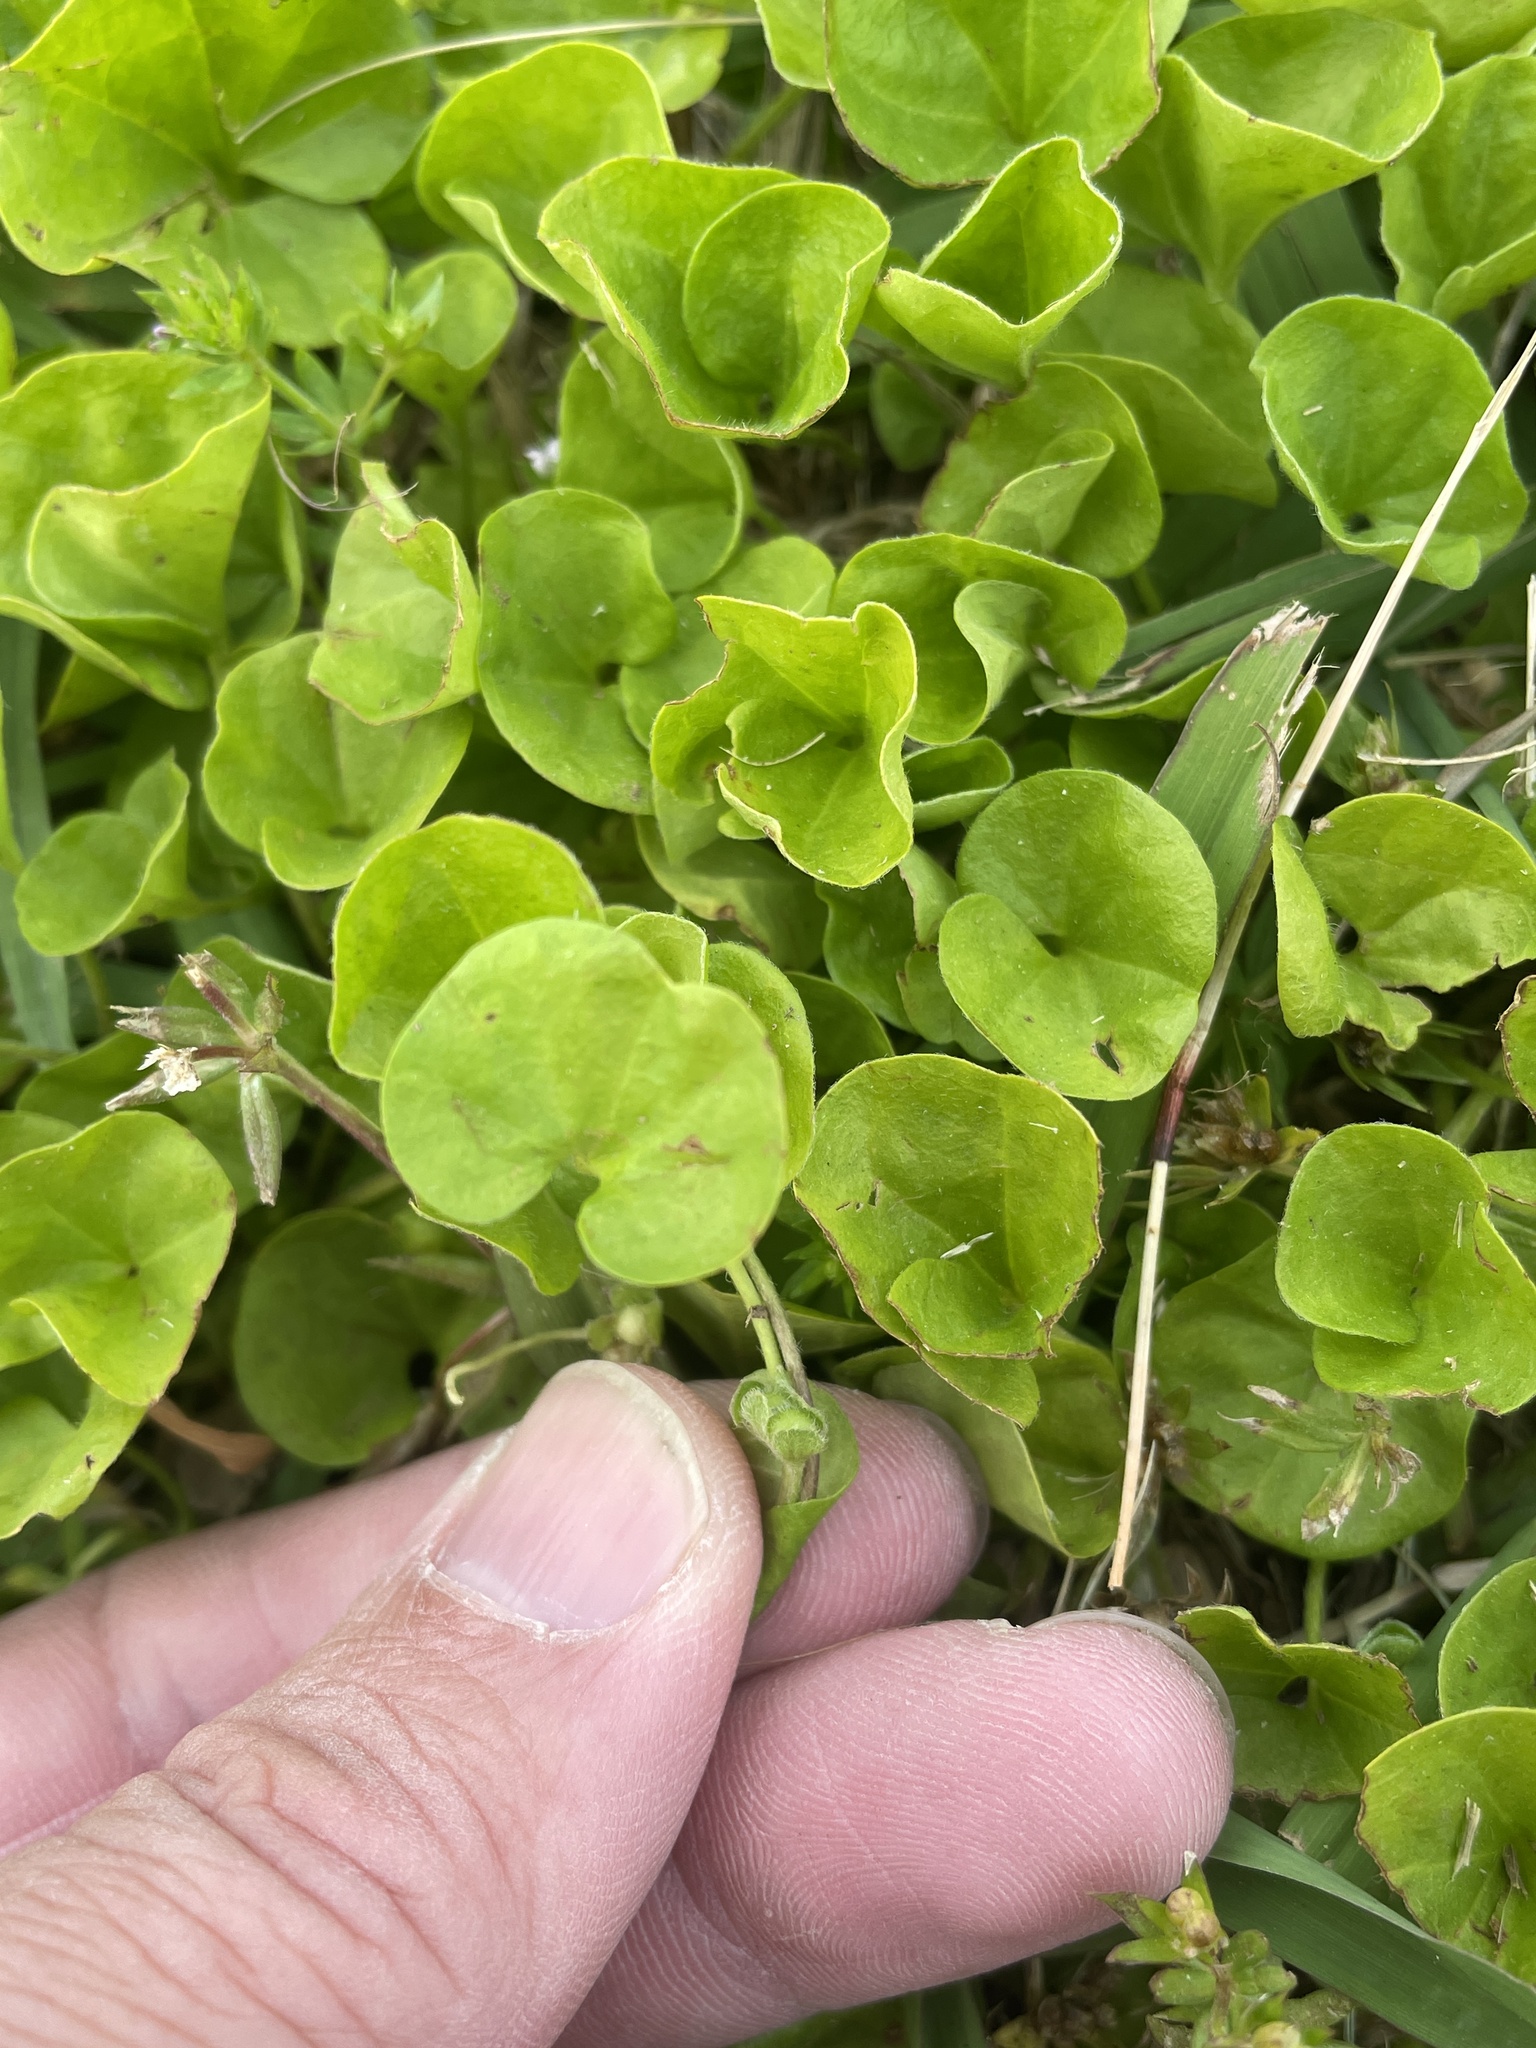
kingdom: Plantae
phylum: Tracheophyta
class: Magnoliopsida
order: Solanales
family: Convolvulaceae
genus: Dichondra
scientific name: Dichondra carolinensis
